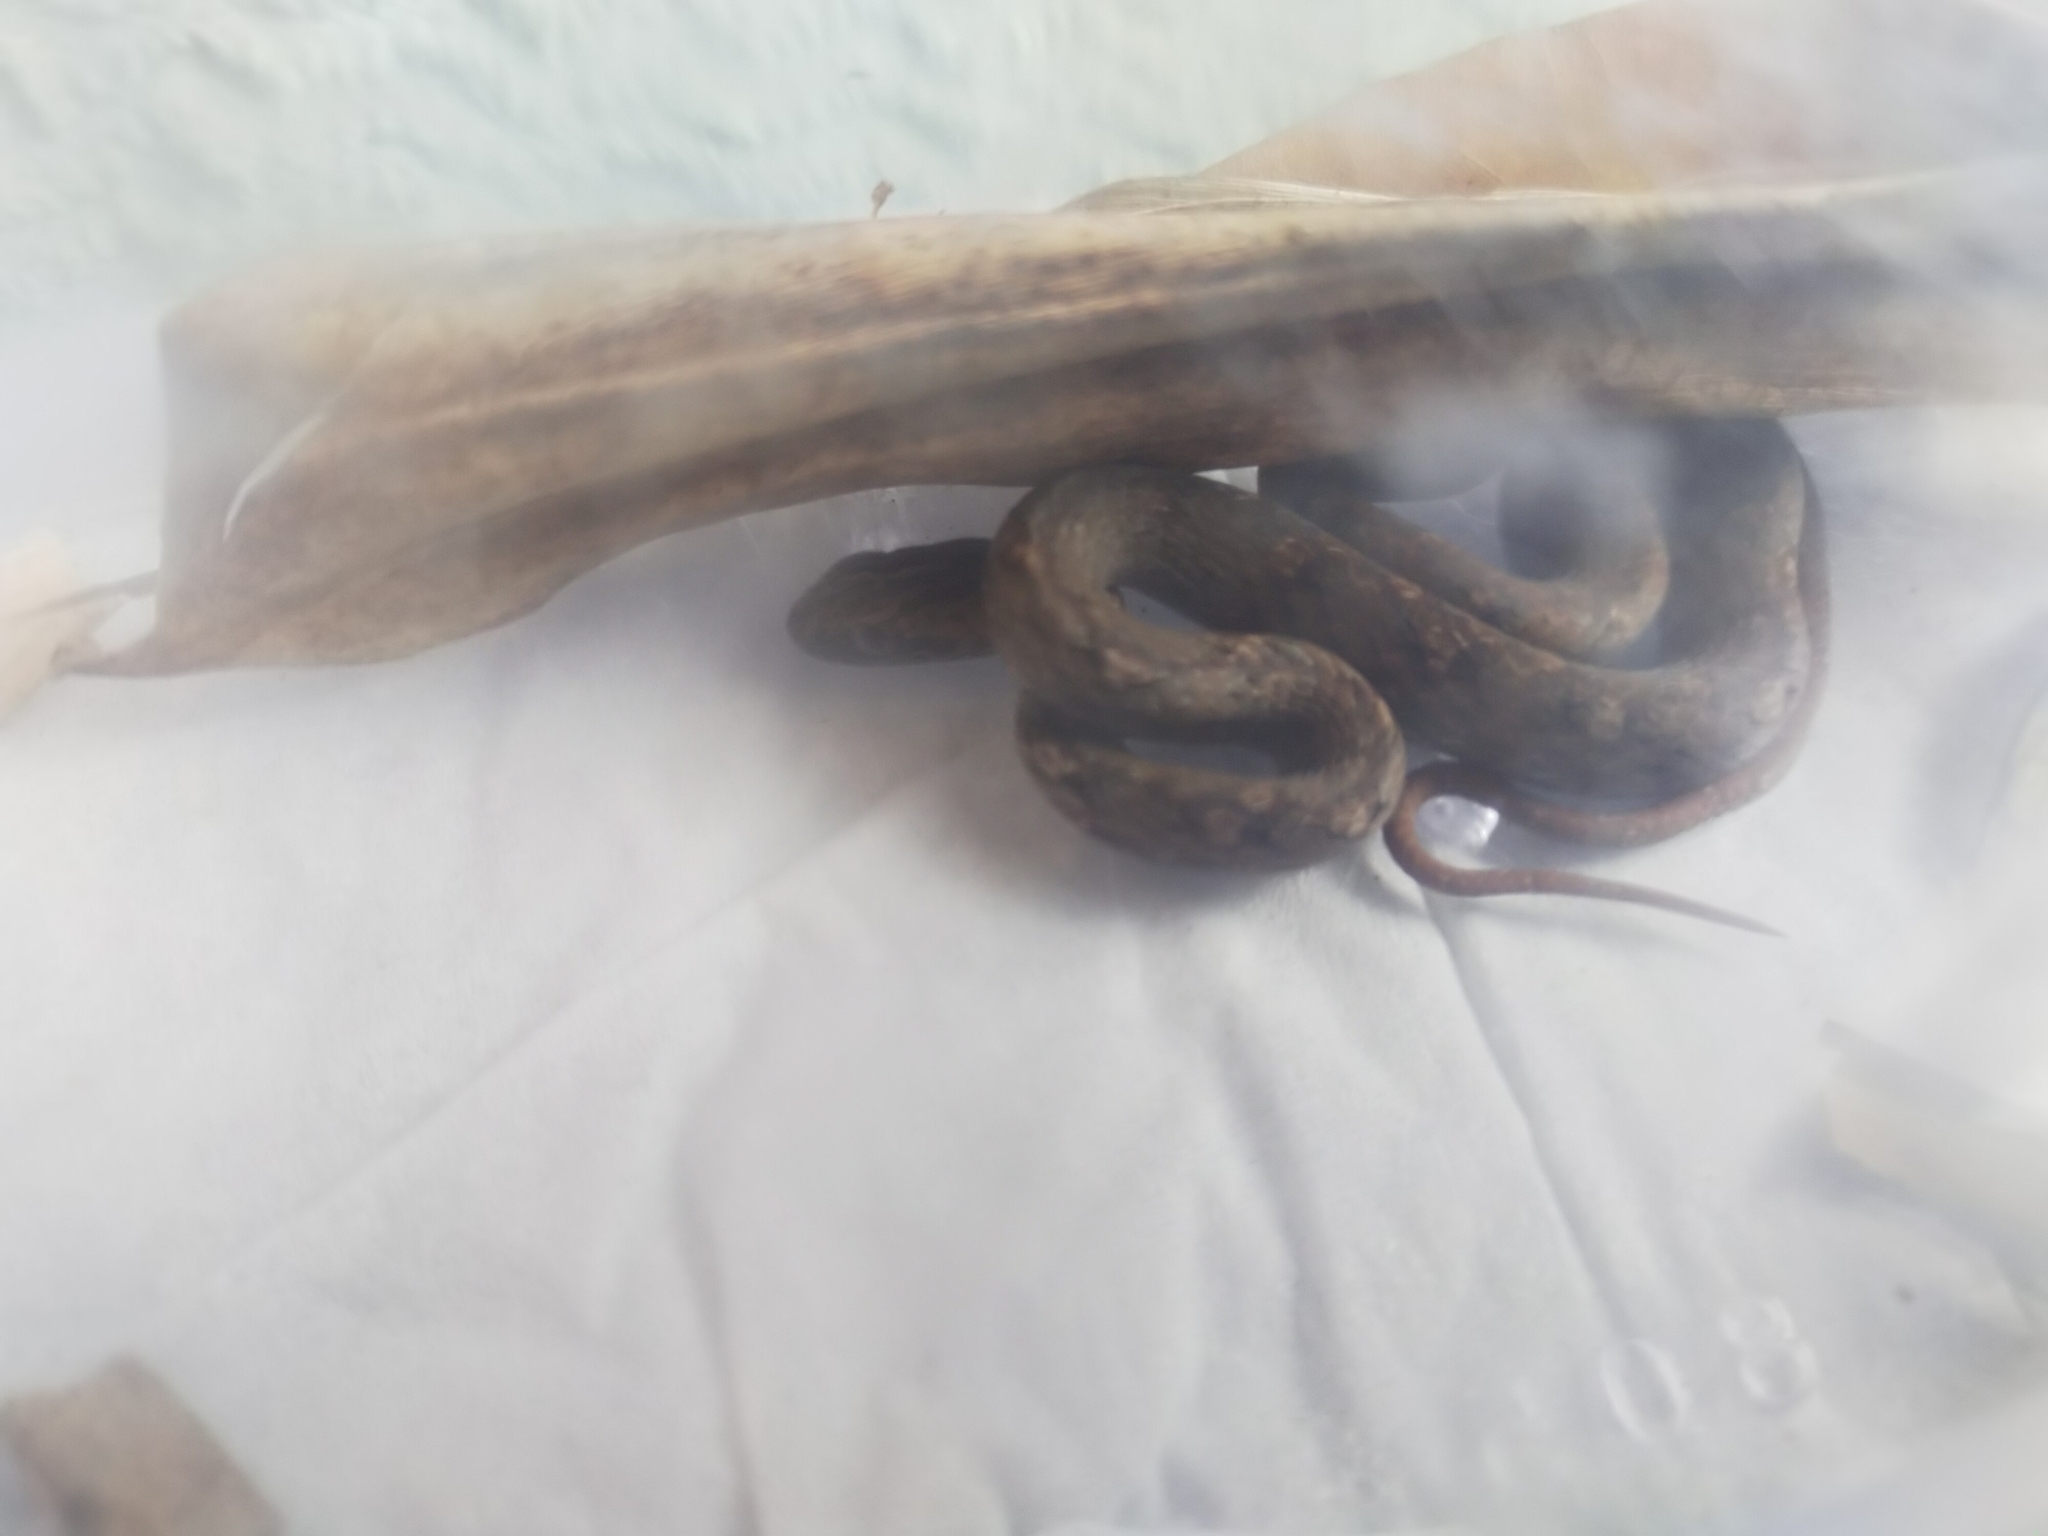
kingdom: Animalia
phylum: Chordata
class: Squamata
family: Pseudaspididae
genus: Psammodynastes
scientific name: Psammodynastes pulverulentus
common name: Common mock viper
